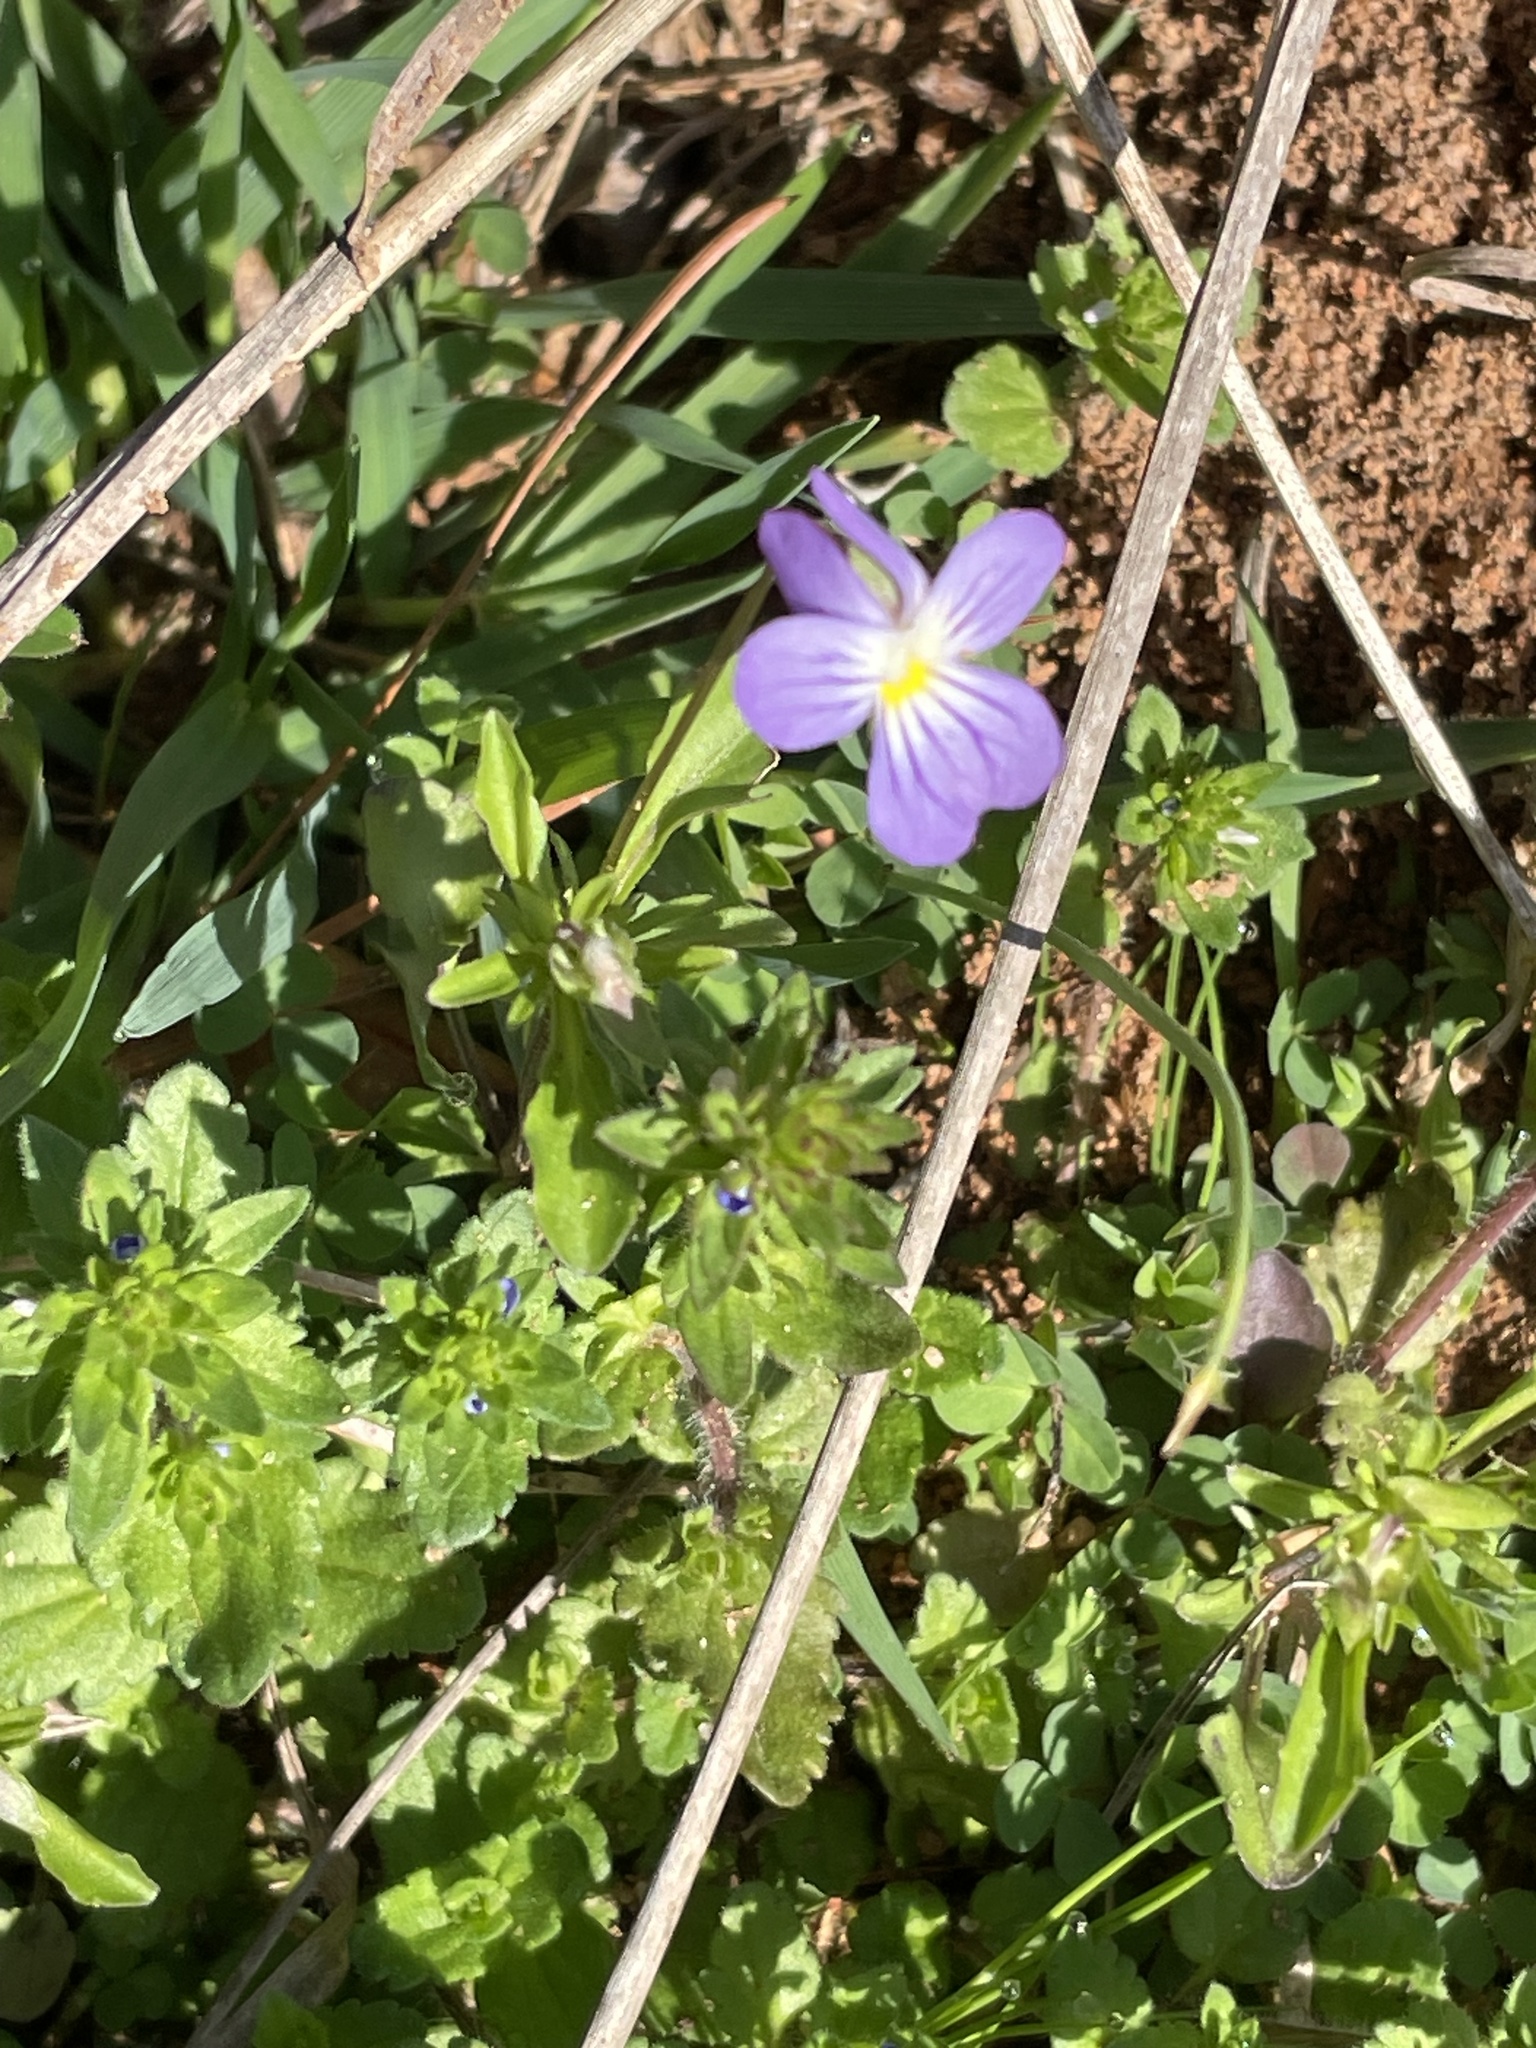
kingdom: Plantae
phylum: Tracheophyta
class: Magnoliopsida
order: Malpighiales
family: Violaceae
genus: Viola
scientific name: Viola rafinesquei
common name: American field pansy
